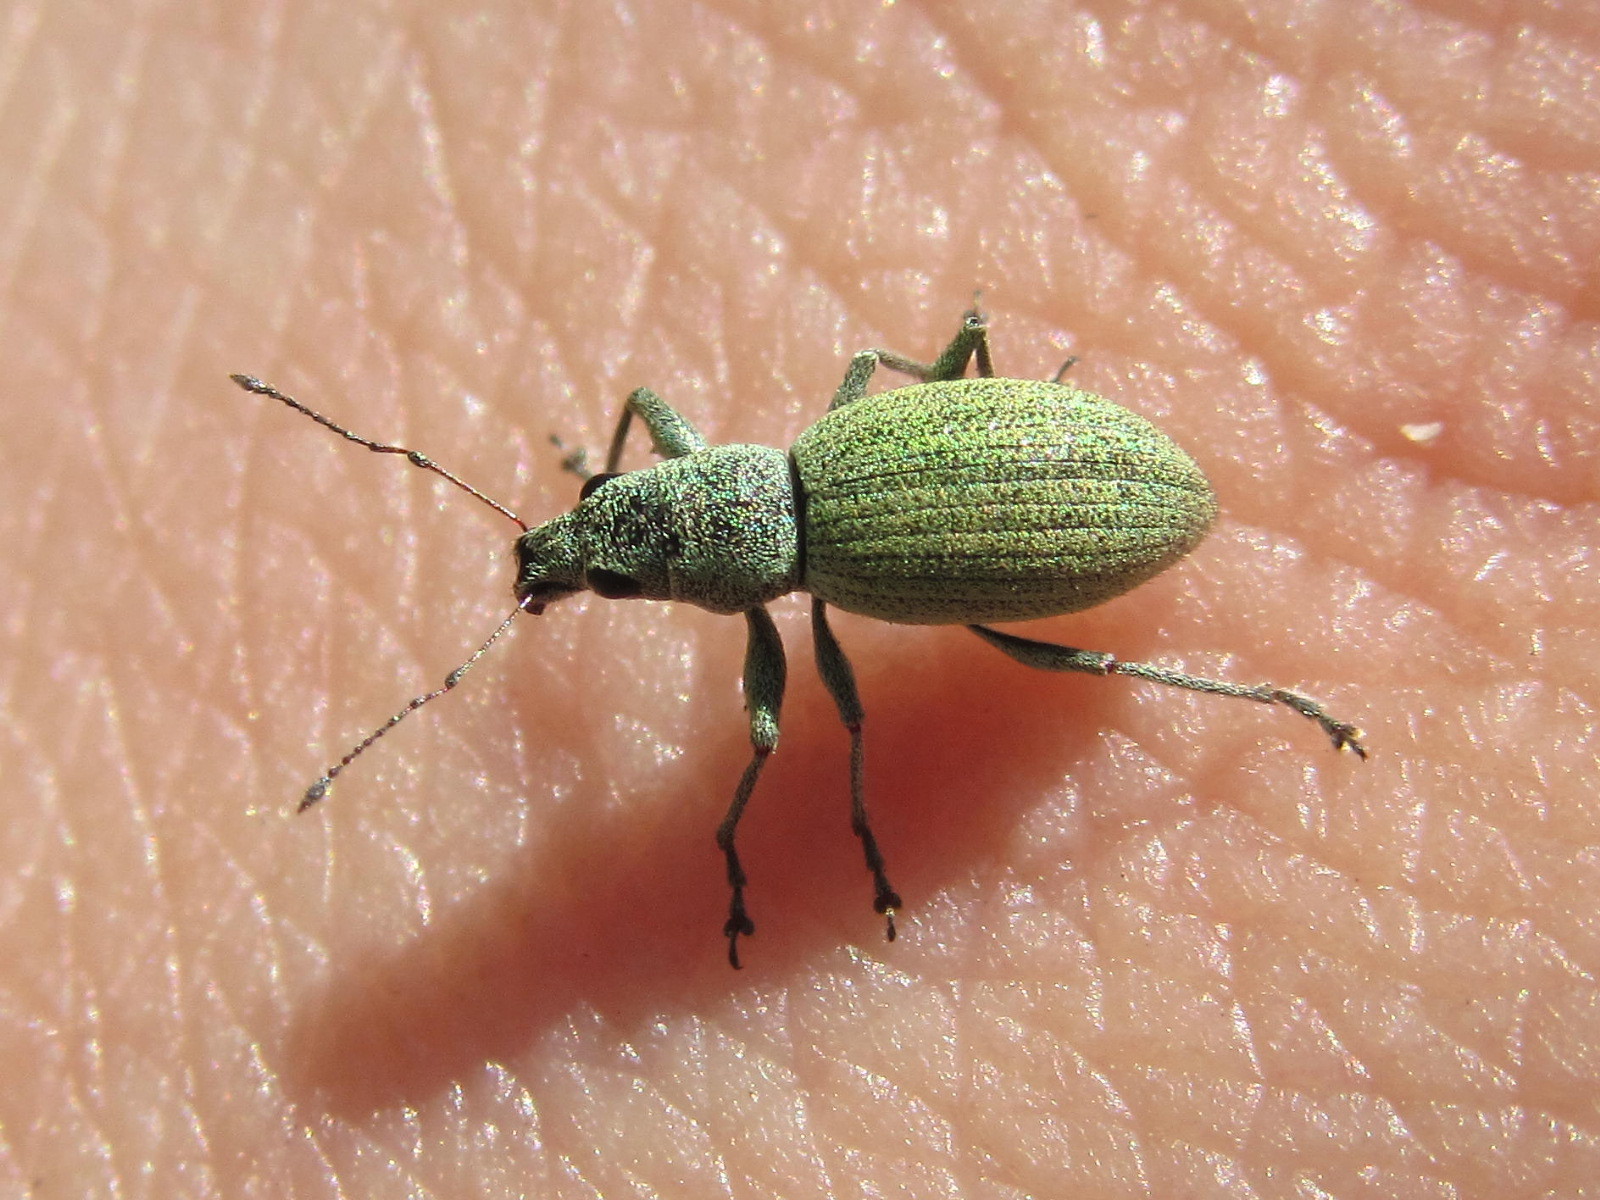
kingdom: Animalia
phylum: Arthropoda
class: Insecta
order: Coleoptera
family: Curculionidae
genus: Eusomus
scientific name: Eusomus ovulum
